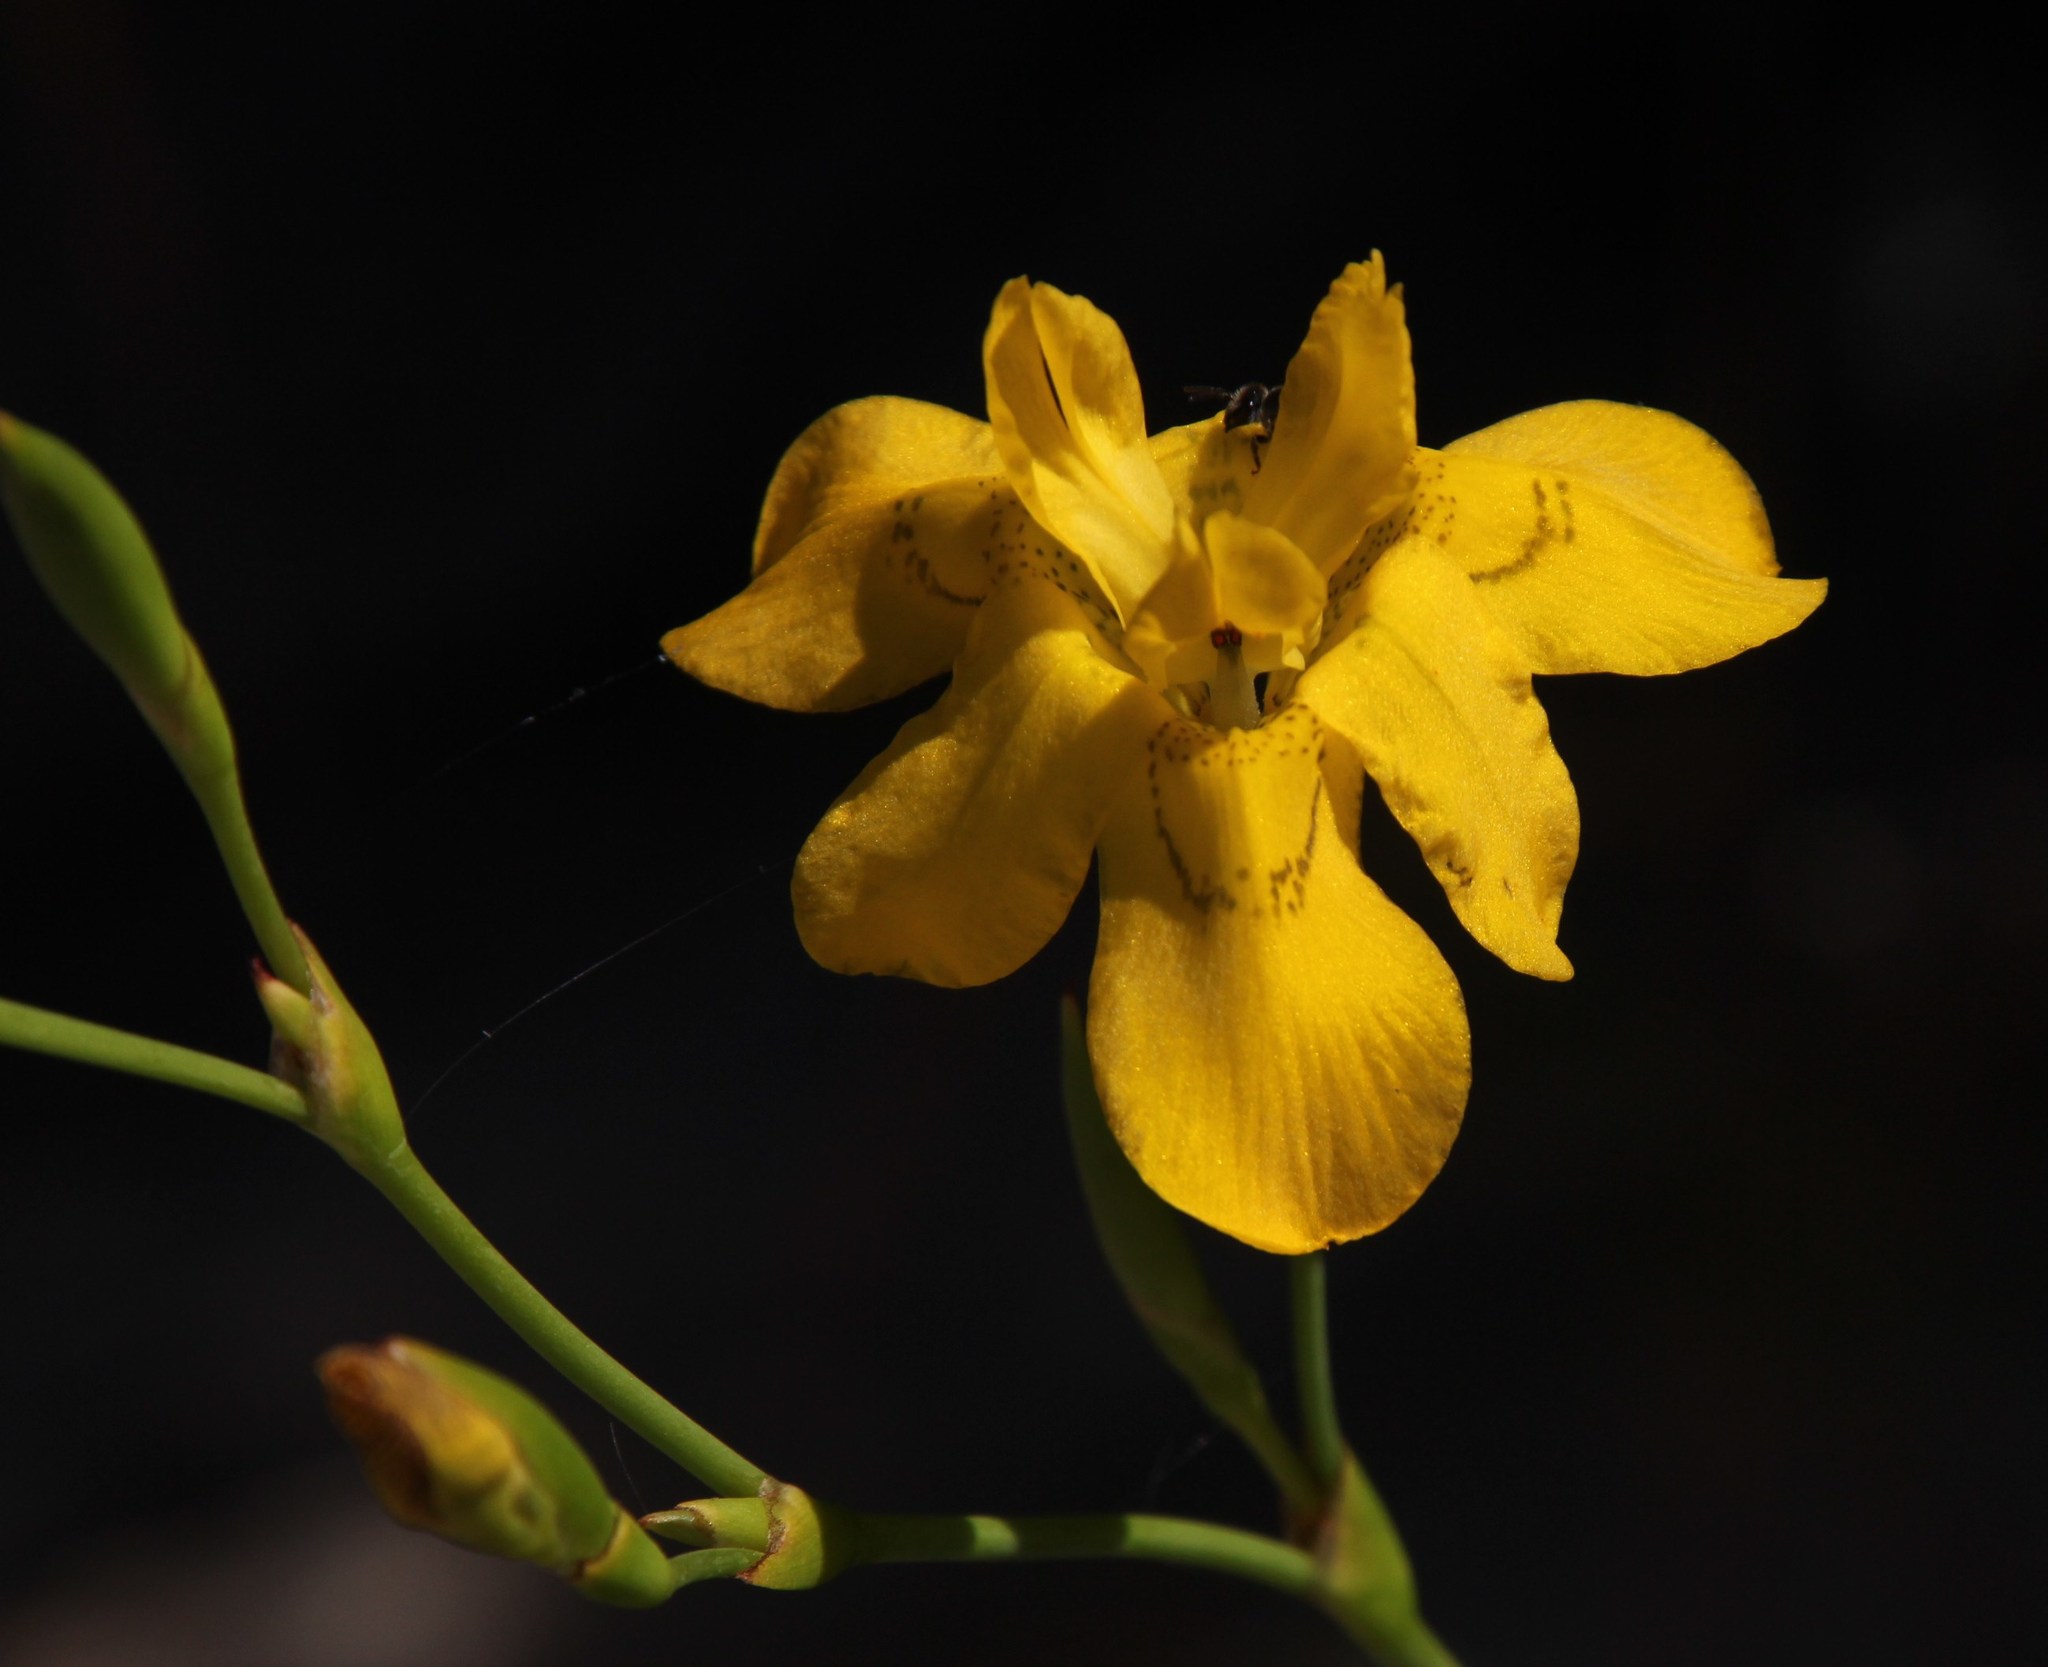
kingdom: Plantae
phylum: Tracheophyta
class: Liliopsida
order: Asparagales
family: Iridaceae
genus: Moraea
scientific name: Moraea ramosissima
